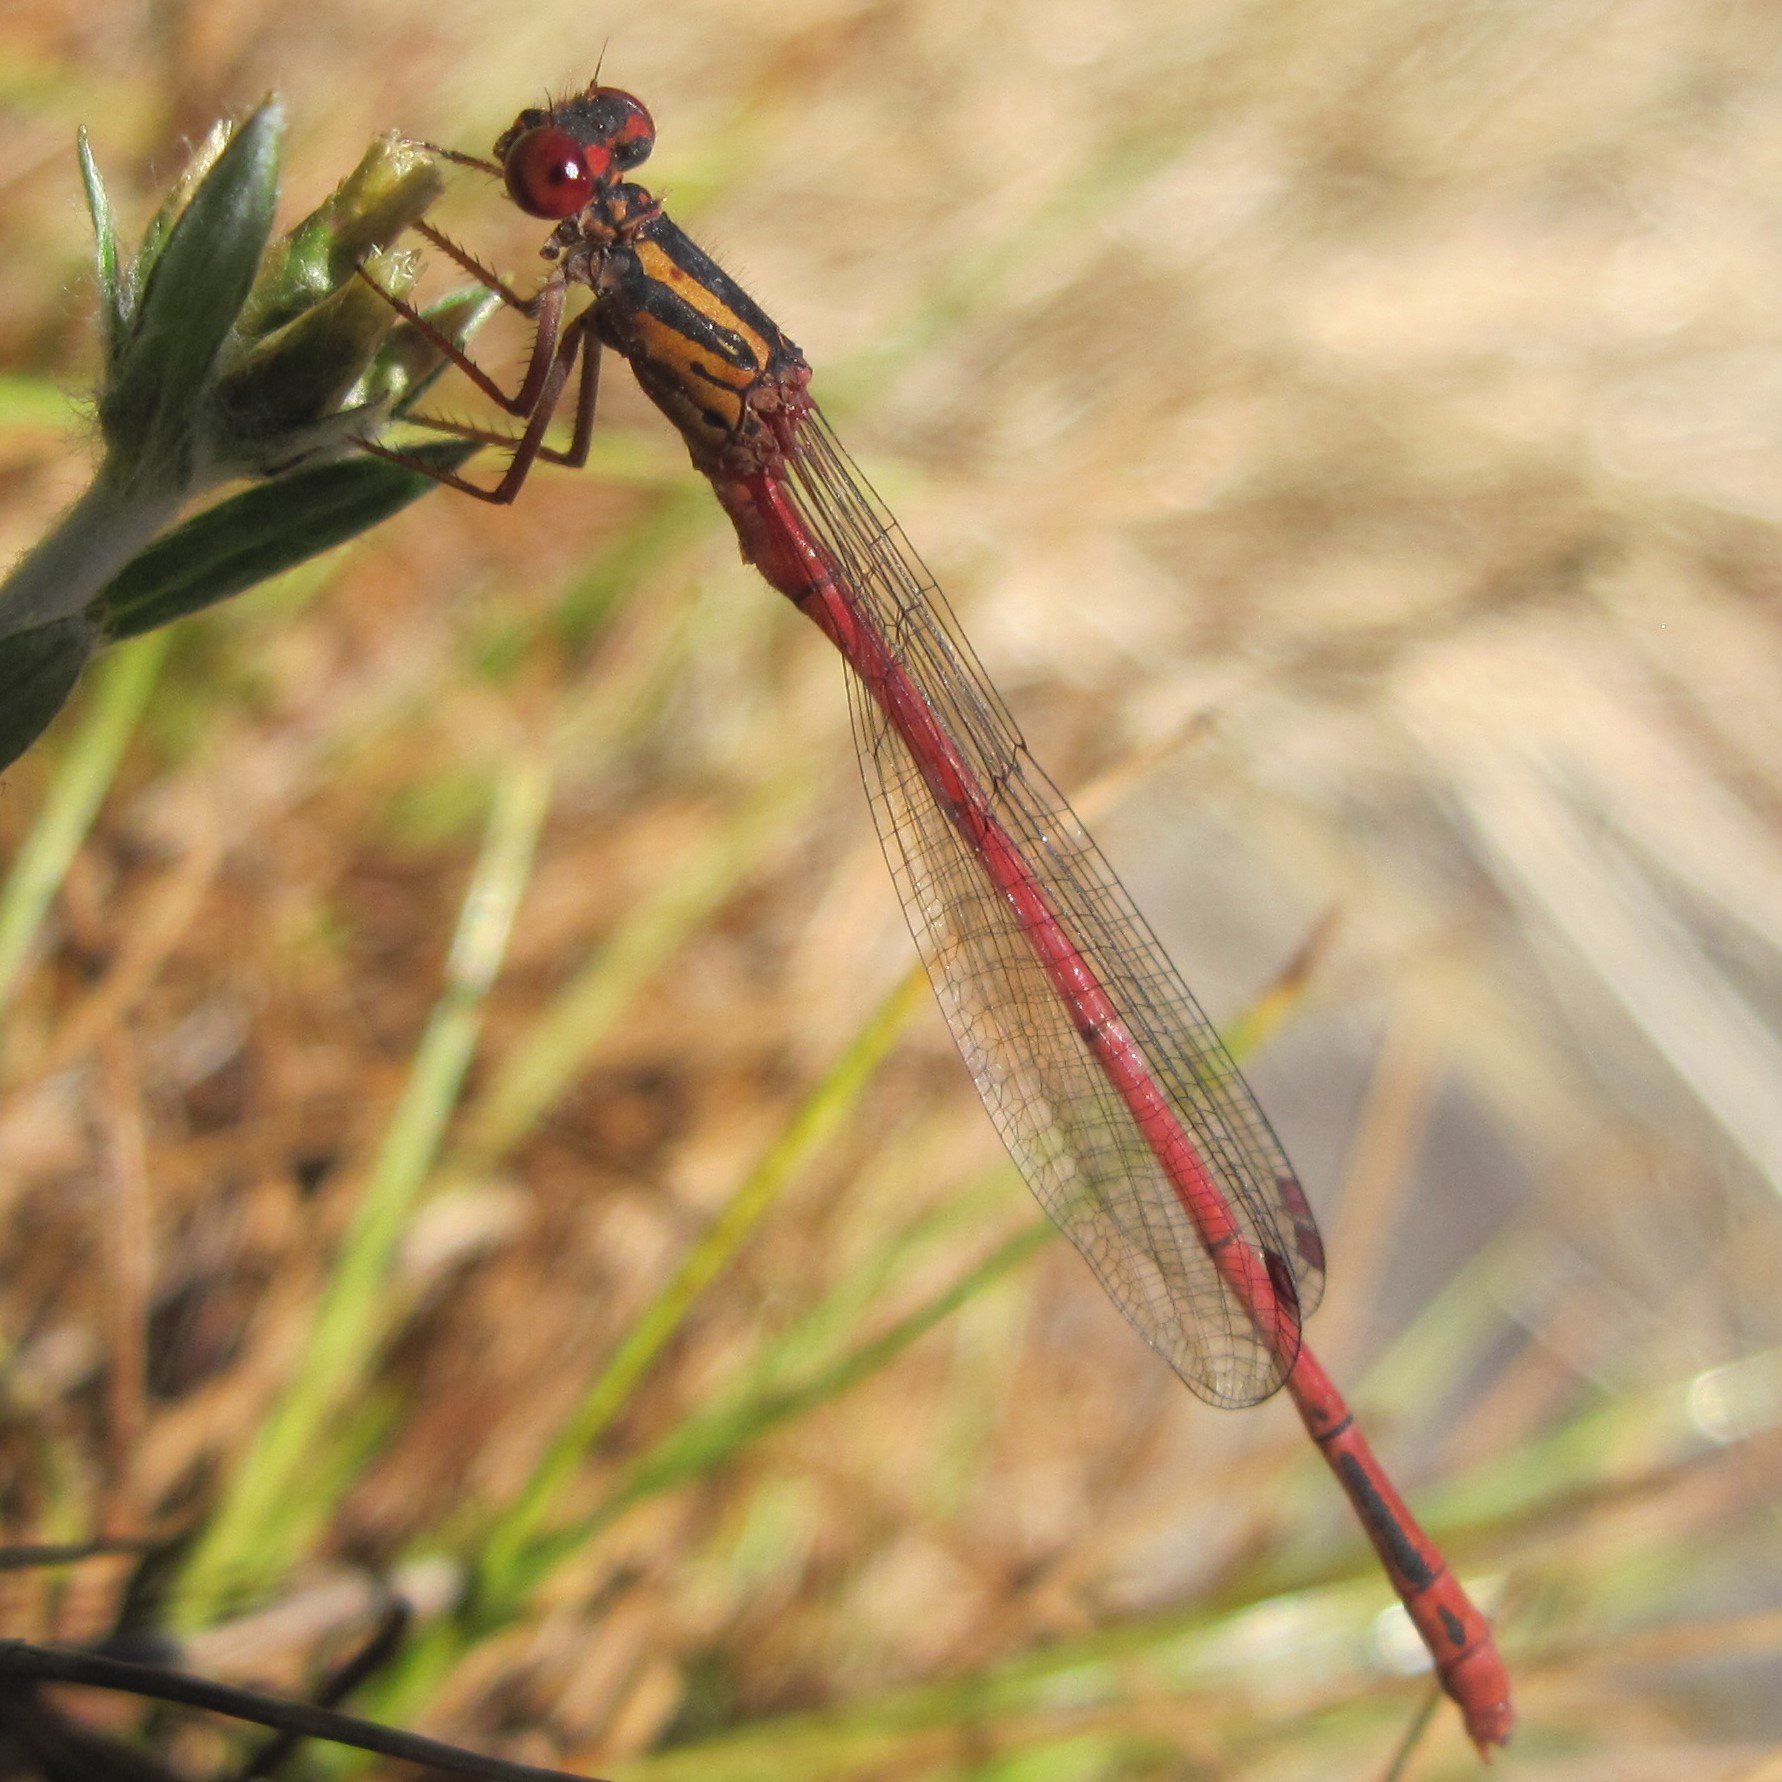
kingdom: Animalia
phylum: Arthropoda
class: Insecta
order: Odonata
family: Coenagrionidae
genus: Xanthocnemis
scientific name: Xanthocnemis zealandica
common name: Common redcoat damselfly
